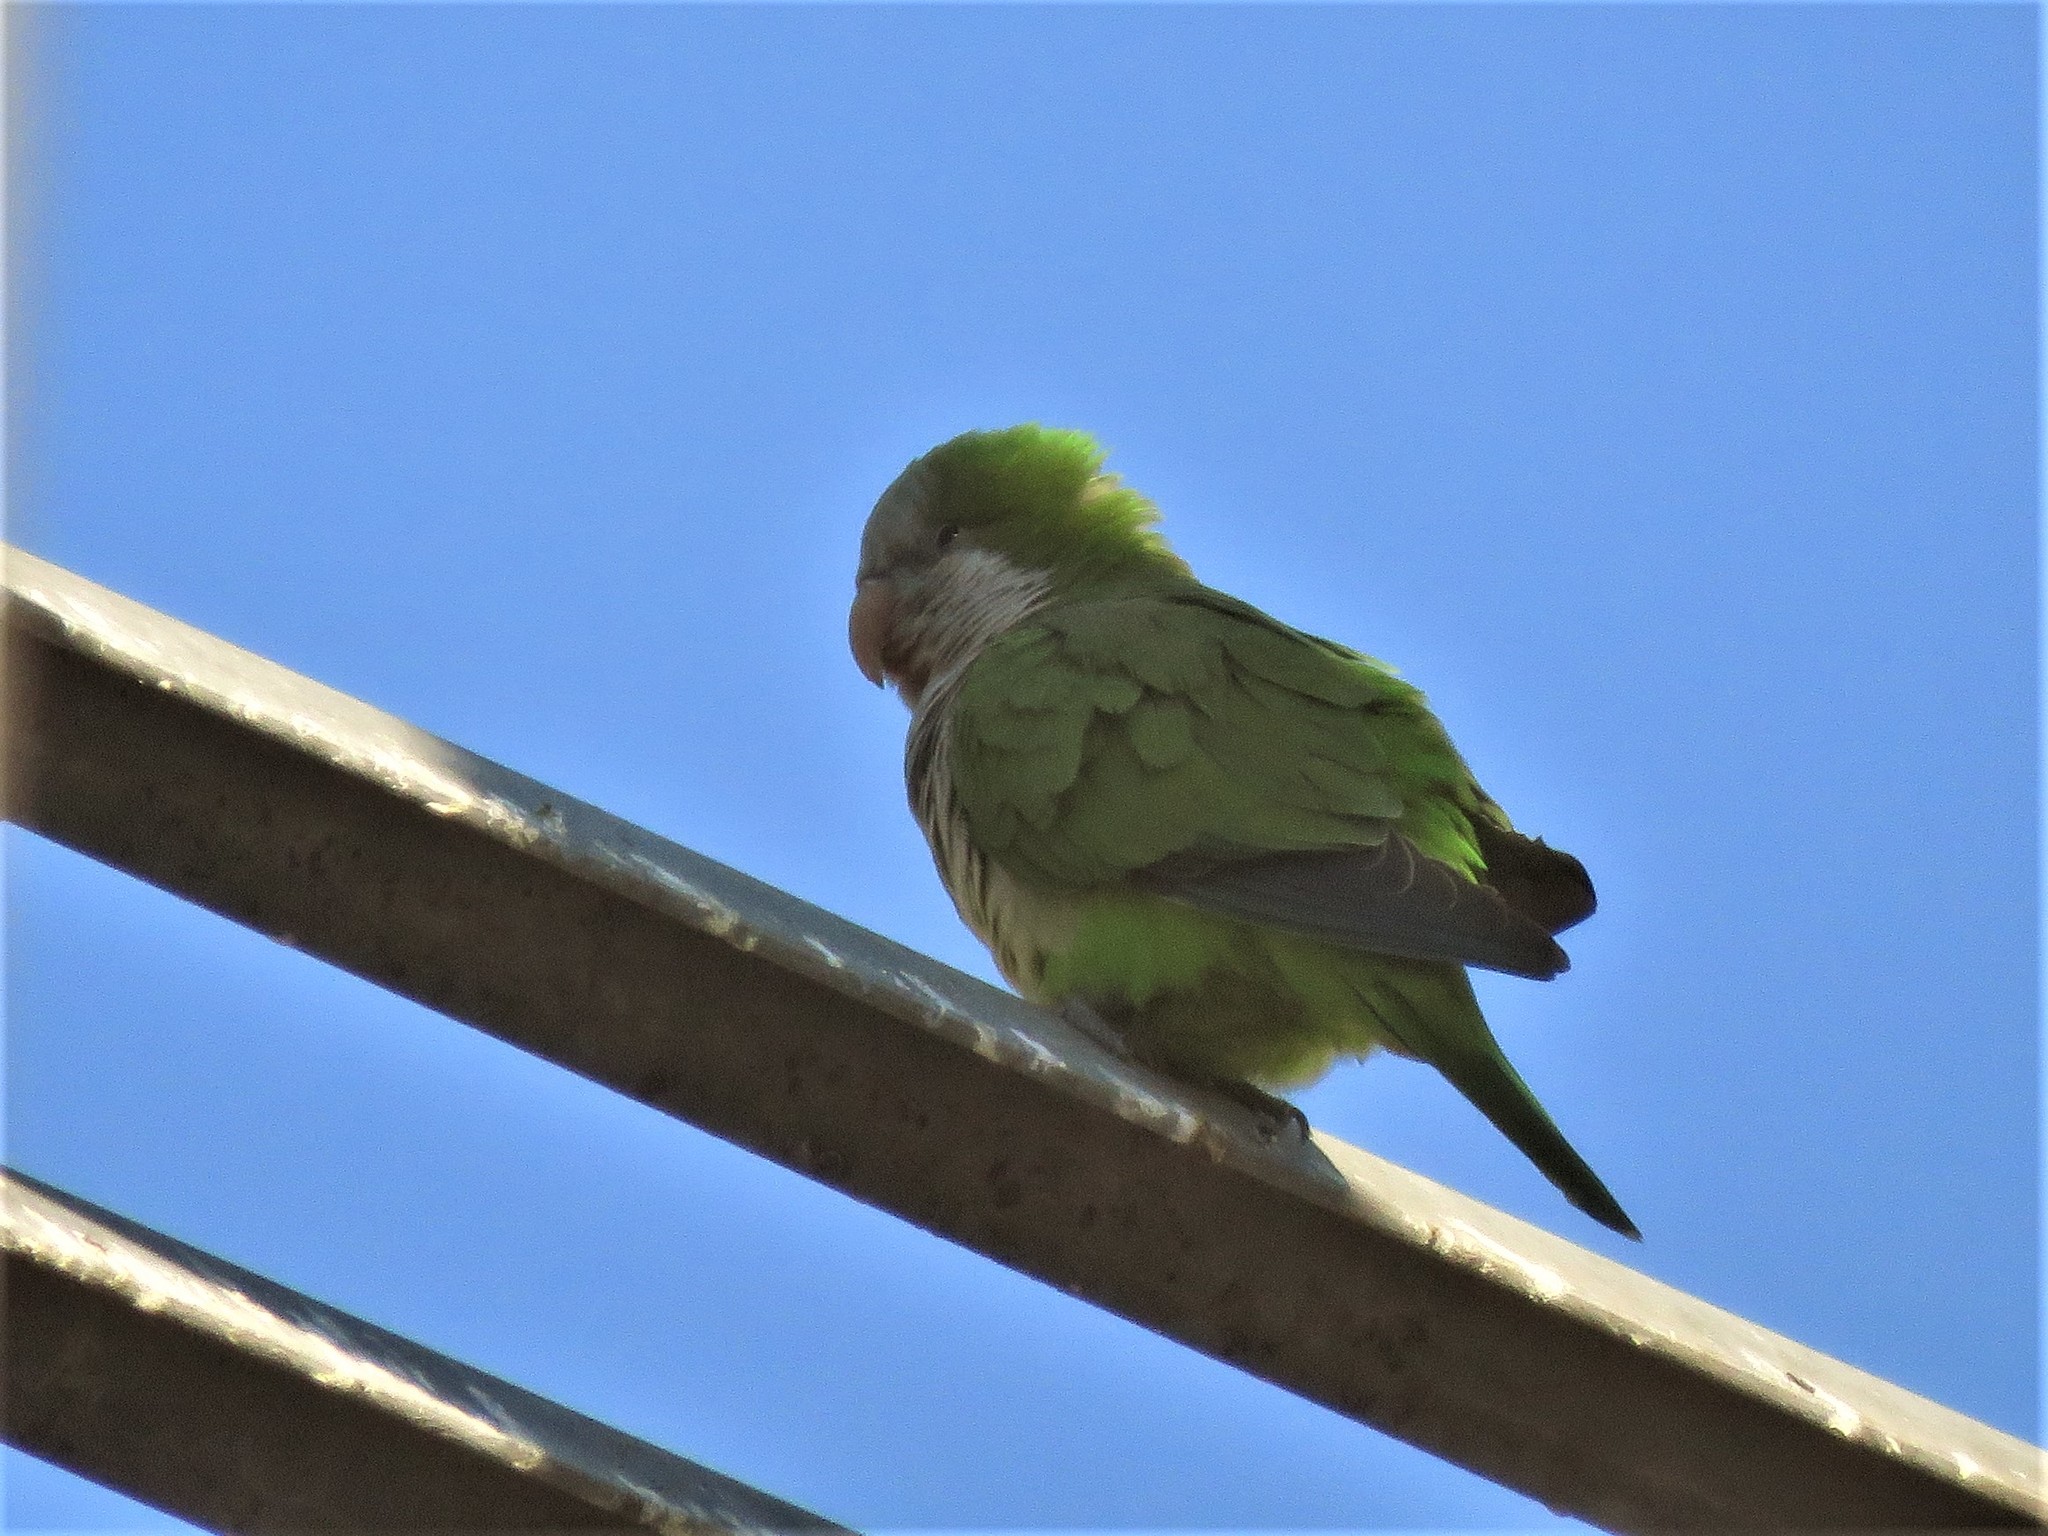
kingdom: Animalia
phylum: Chordata
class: Aves
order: Psittaciformes
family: Psittacidae
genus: Myiopsitta
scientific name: Myiopsitta monachus
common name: Monk parakeet
